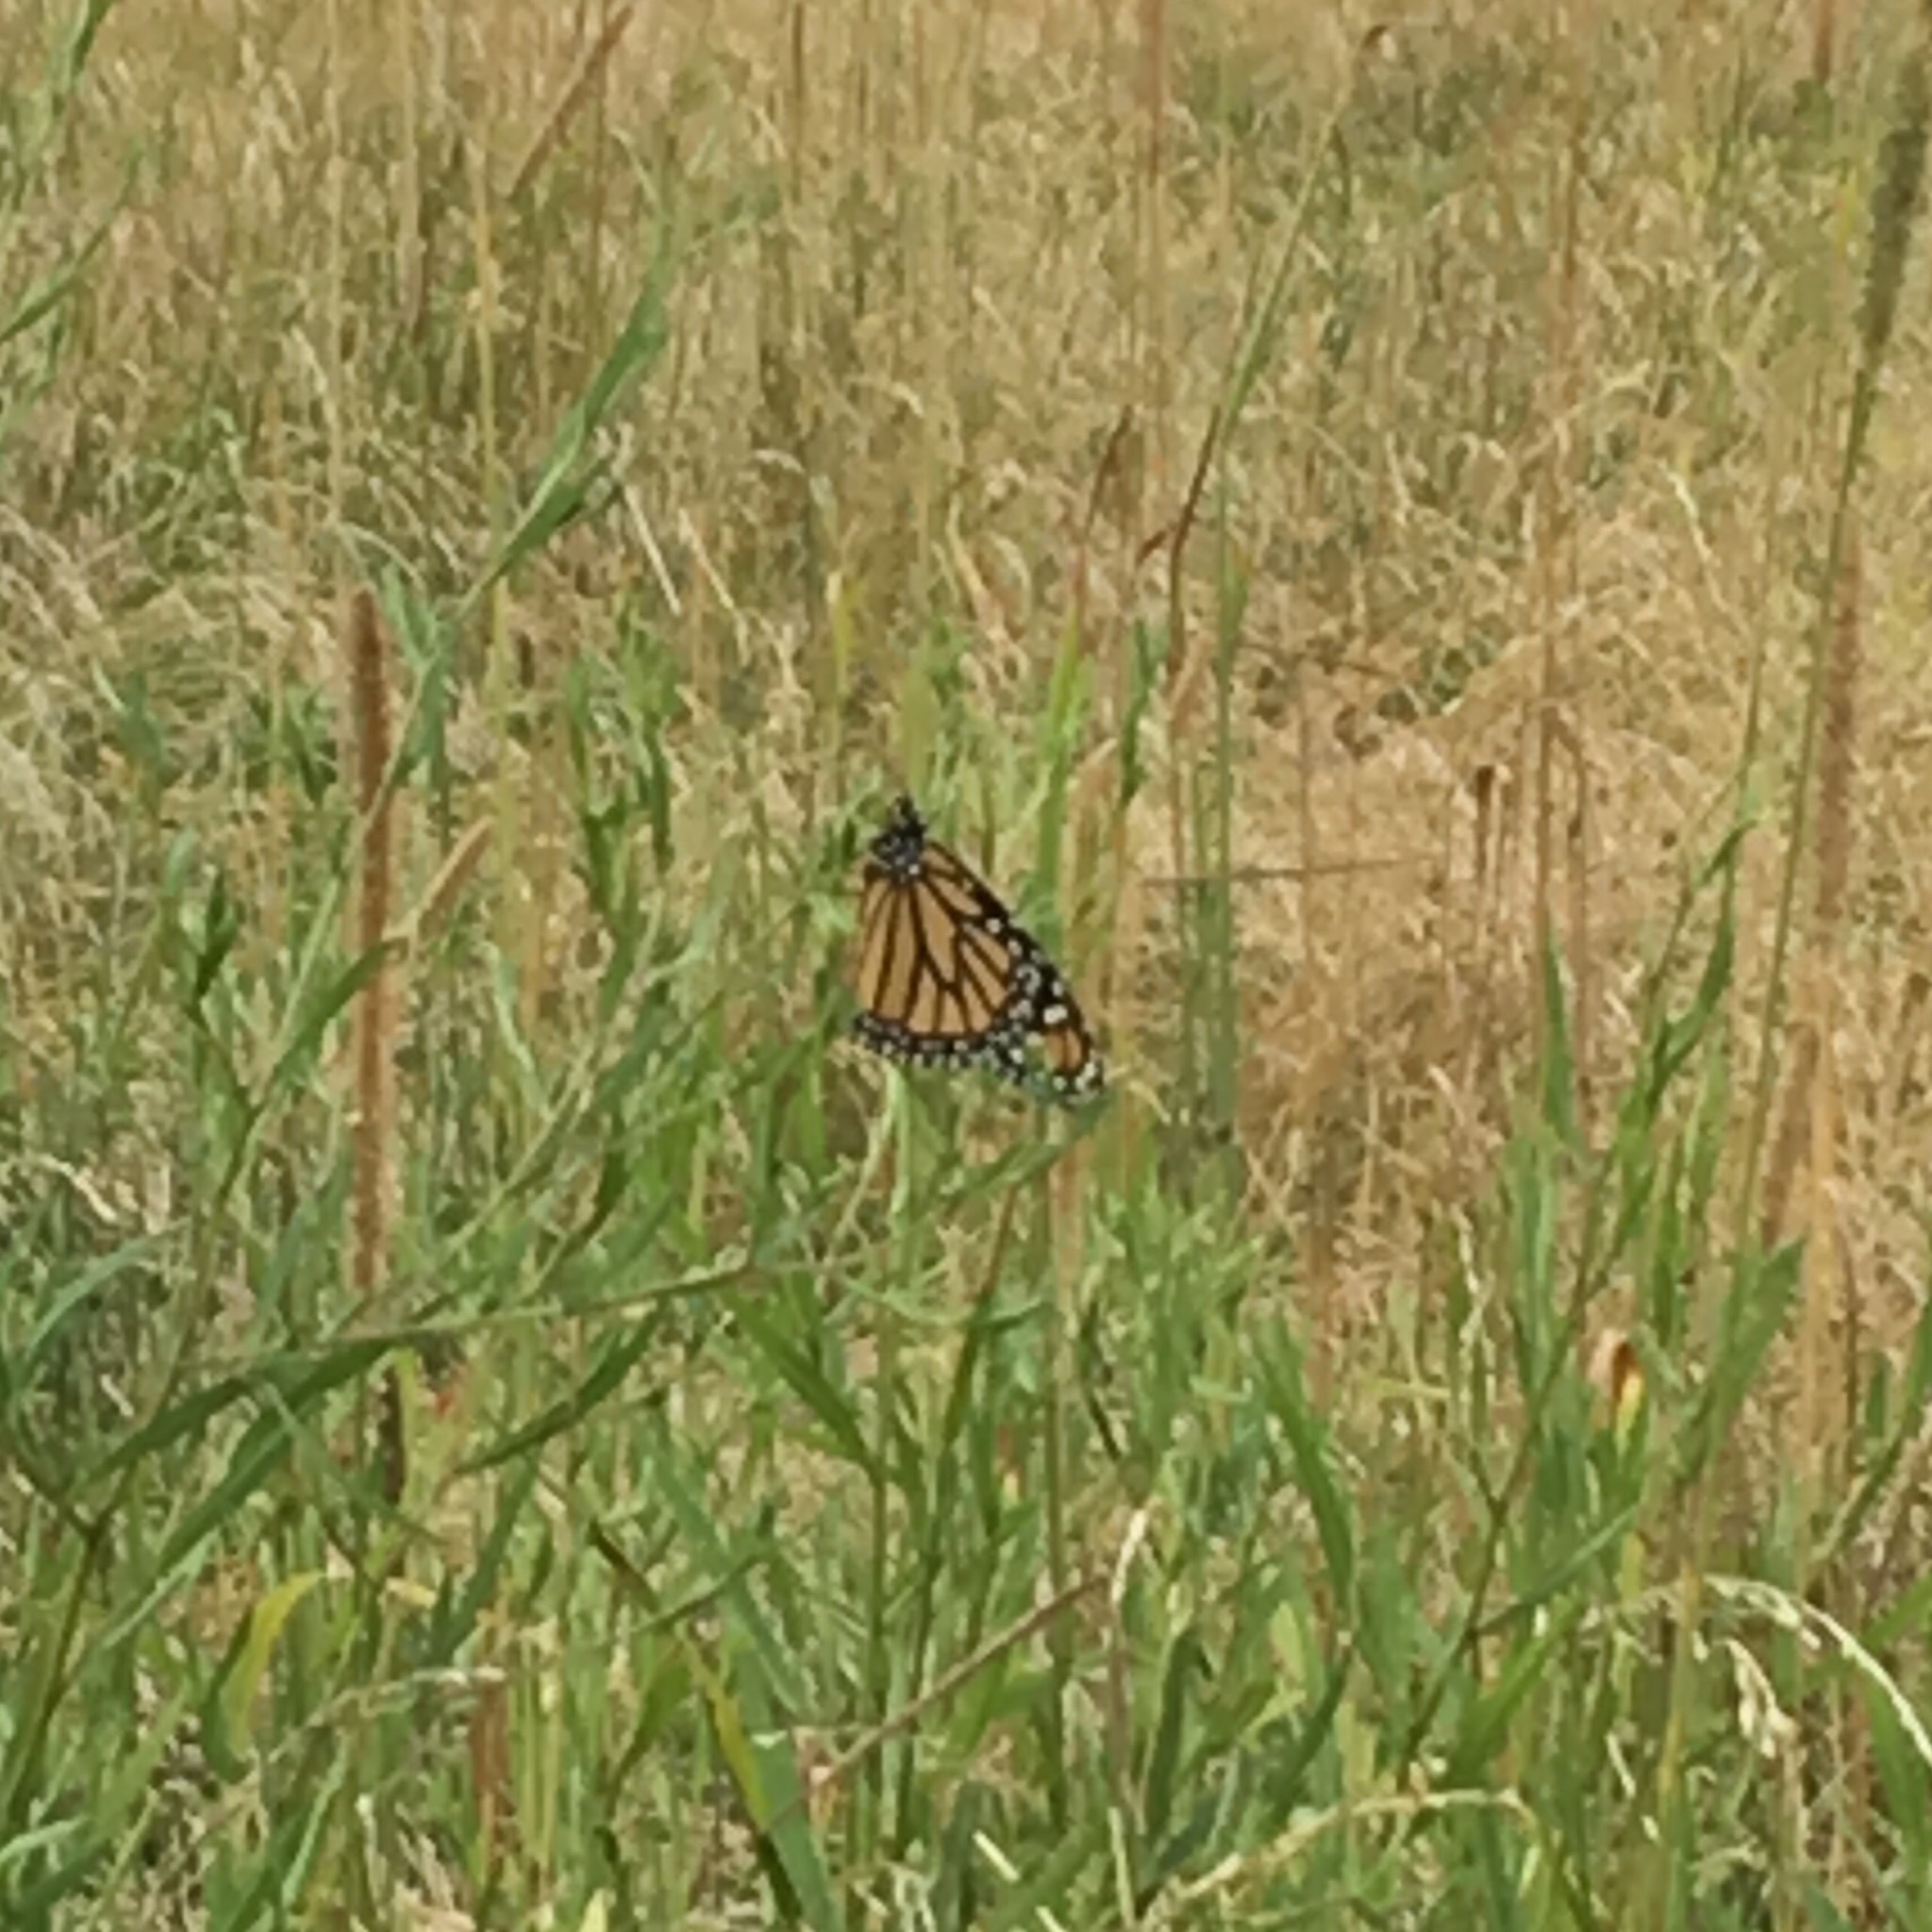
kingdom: Animalia
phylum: Arthropoda
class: Insecta
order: Lepidoptera
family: Nymphalidae
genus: Danaus
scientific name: Danaus plexippus
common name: Monarch
